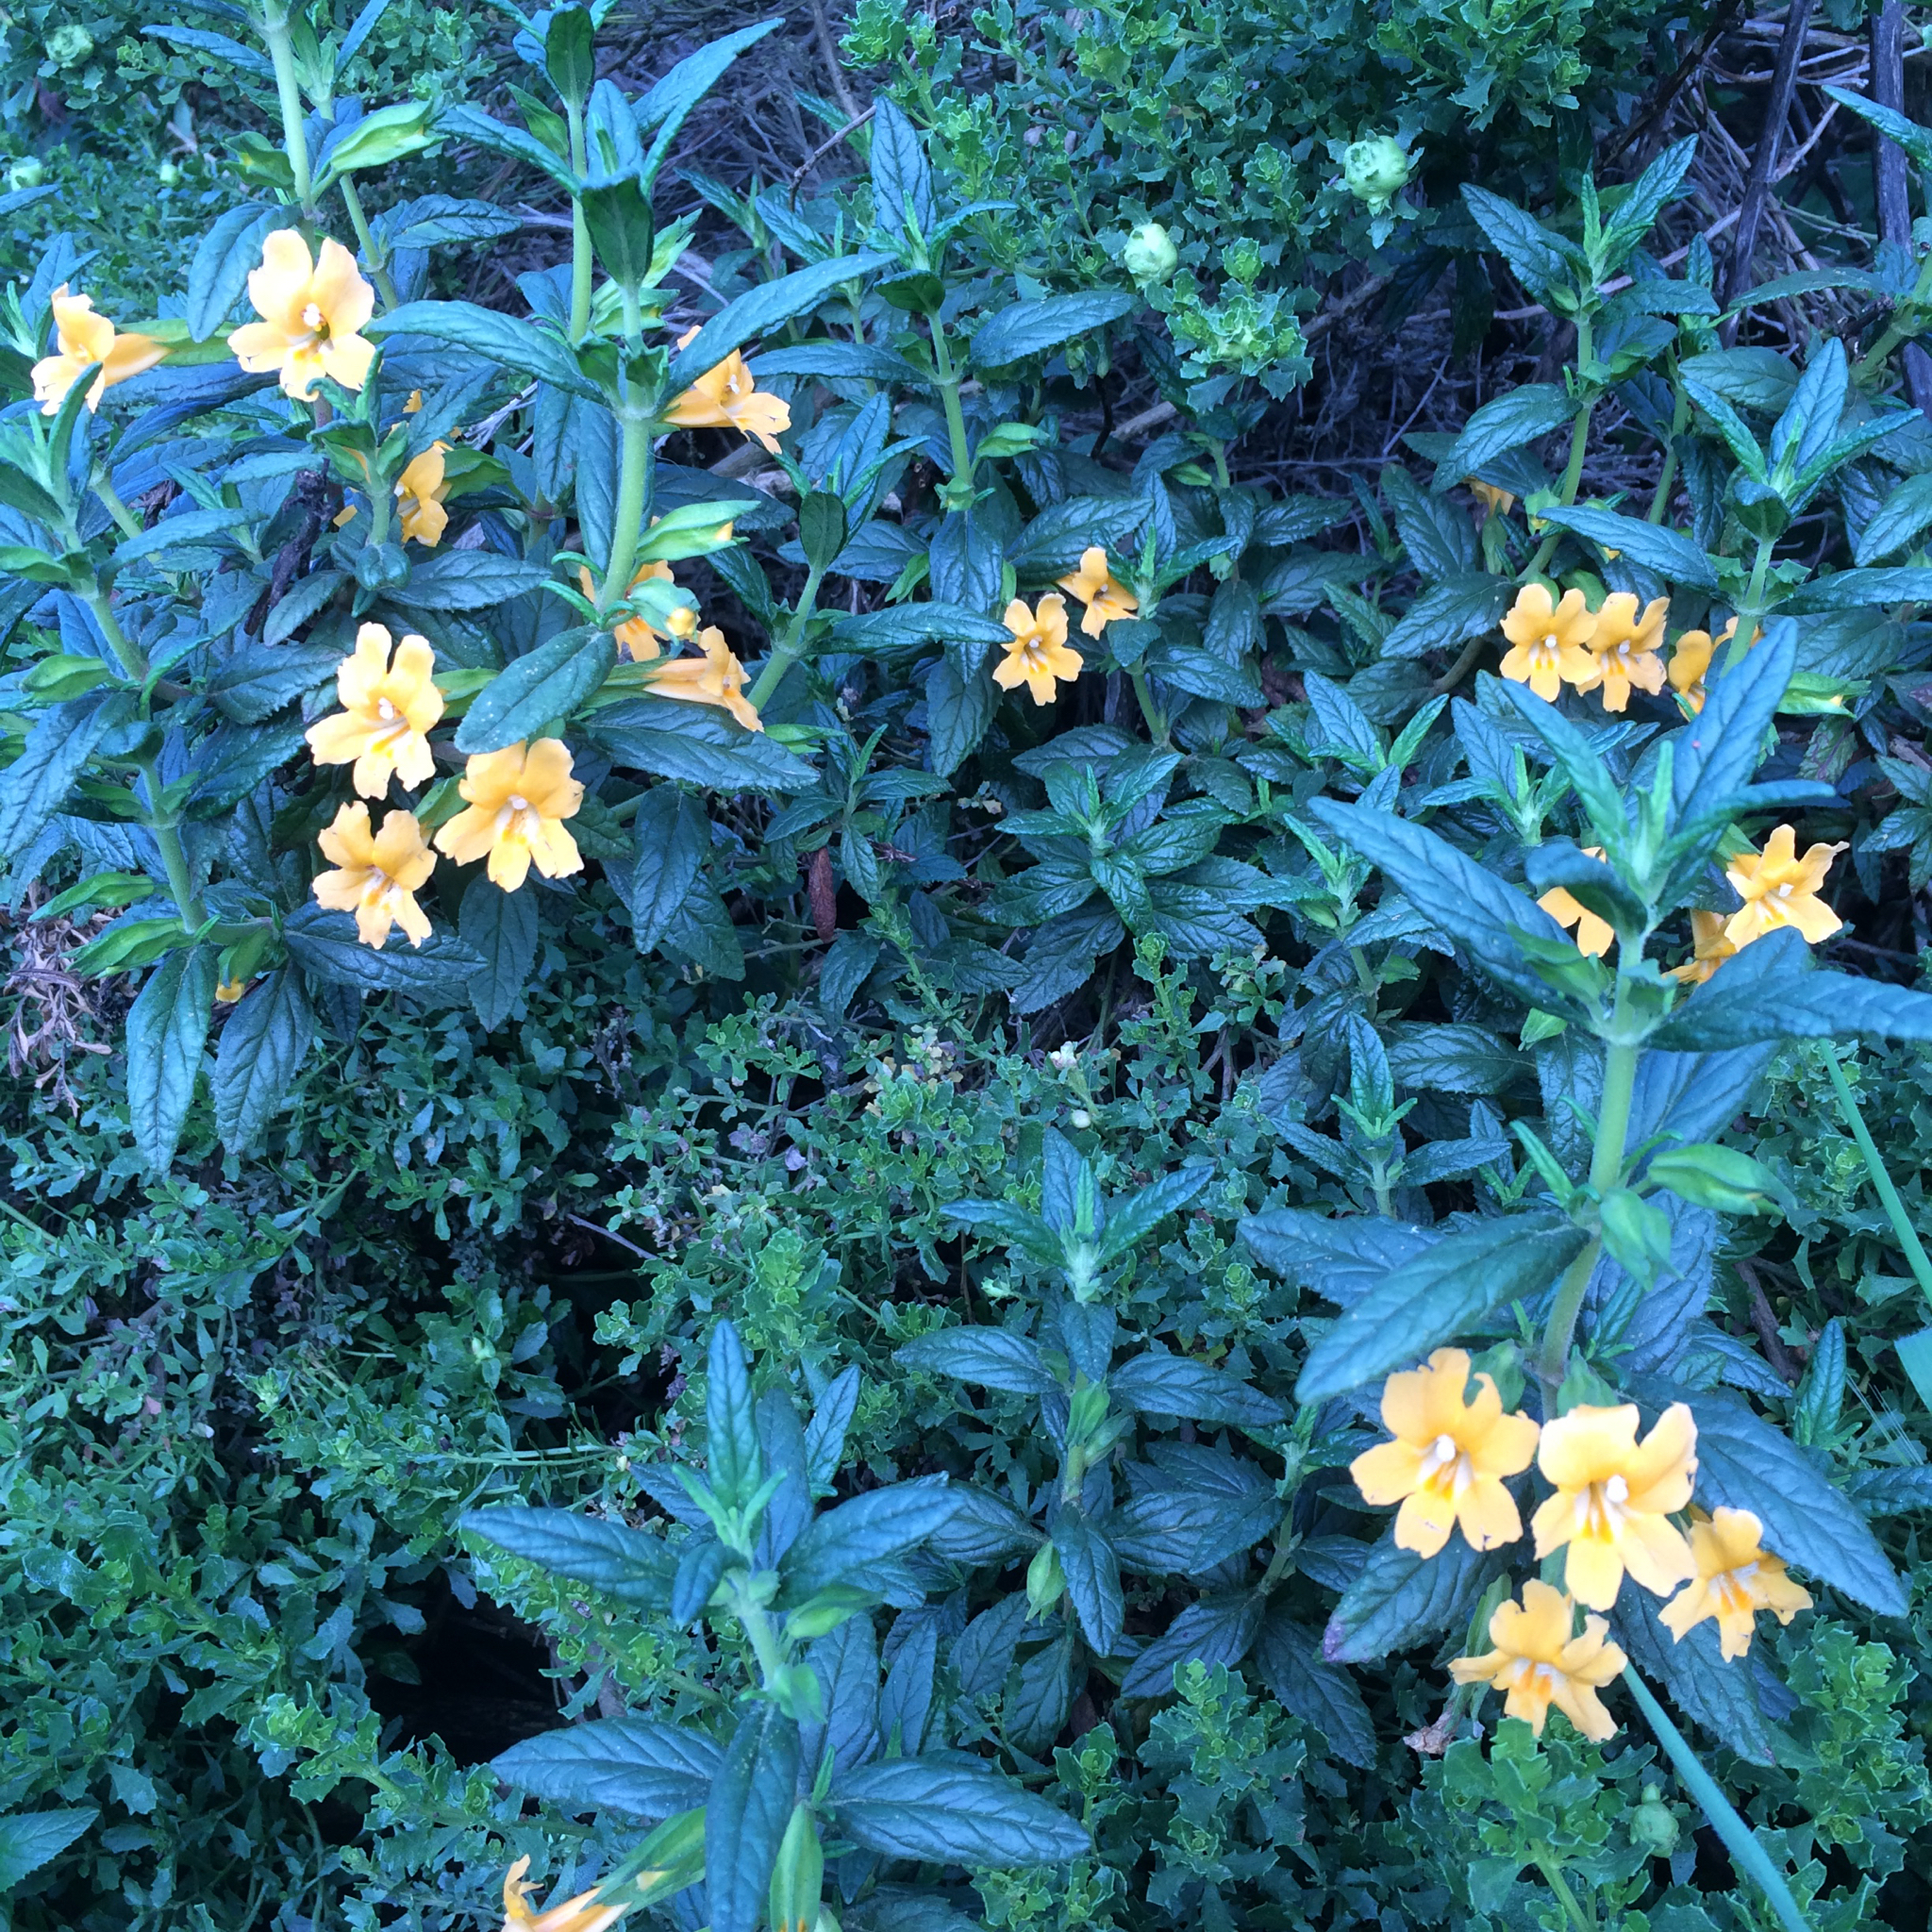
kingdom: Plantae
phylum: Tracheophyta
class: Magnoliopsida
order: Lamiales
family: Phrymaceae
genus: Diplacus
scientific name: Diplacus aurantiacus
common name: Bush monkey-flower
